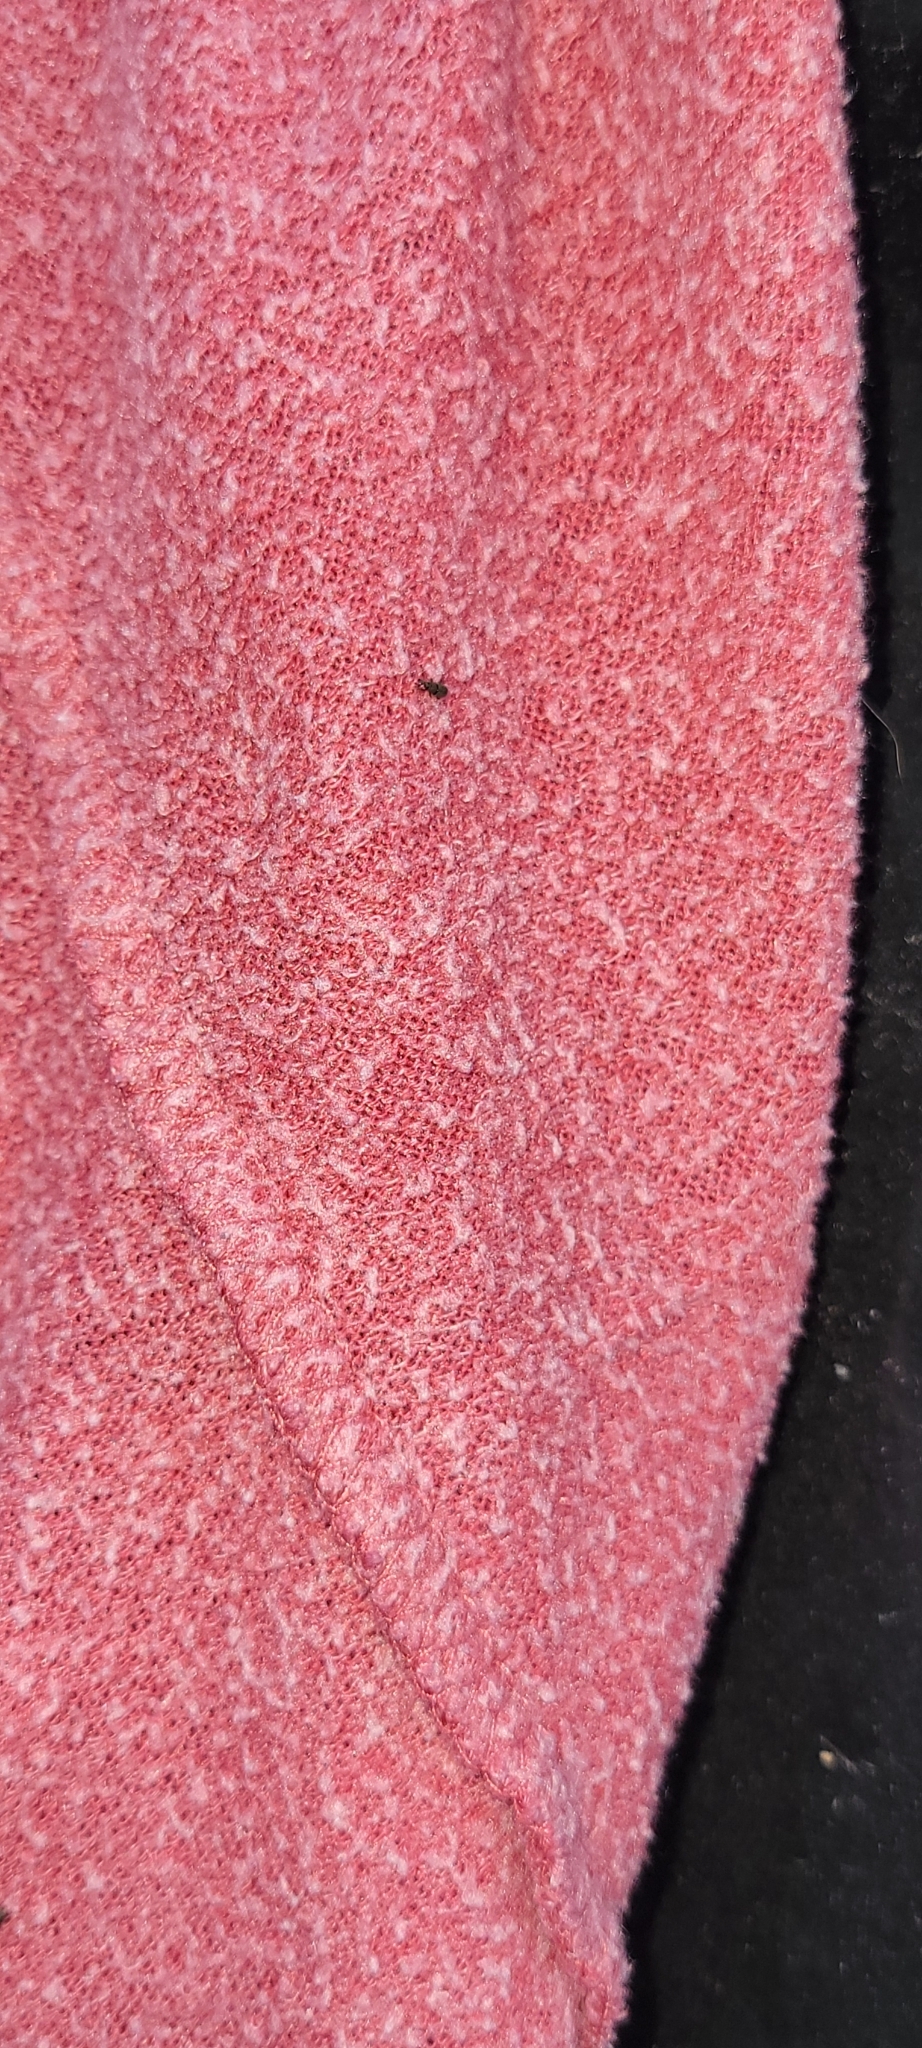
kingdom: Animalia
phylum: Arthropoda
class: Insecta
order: Coleoptera
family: Dryophthoridae
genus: Dryophthorus
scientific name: Dryophthorus americanus
